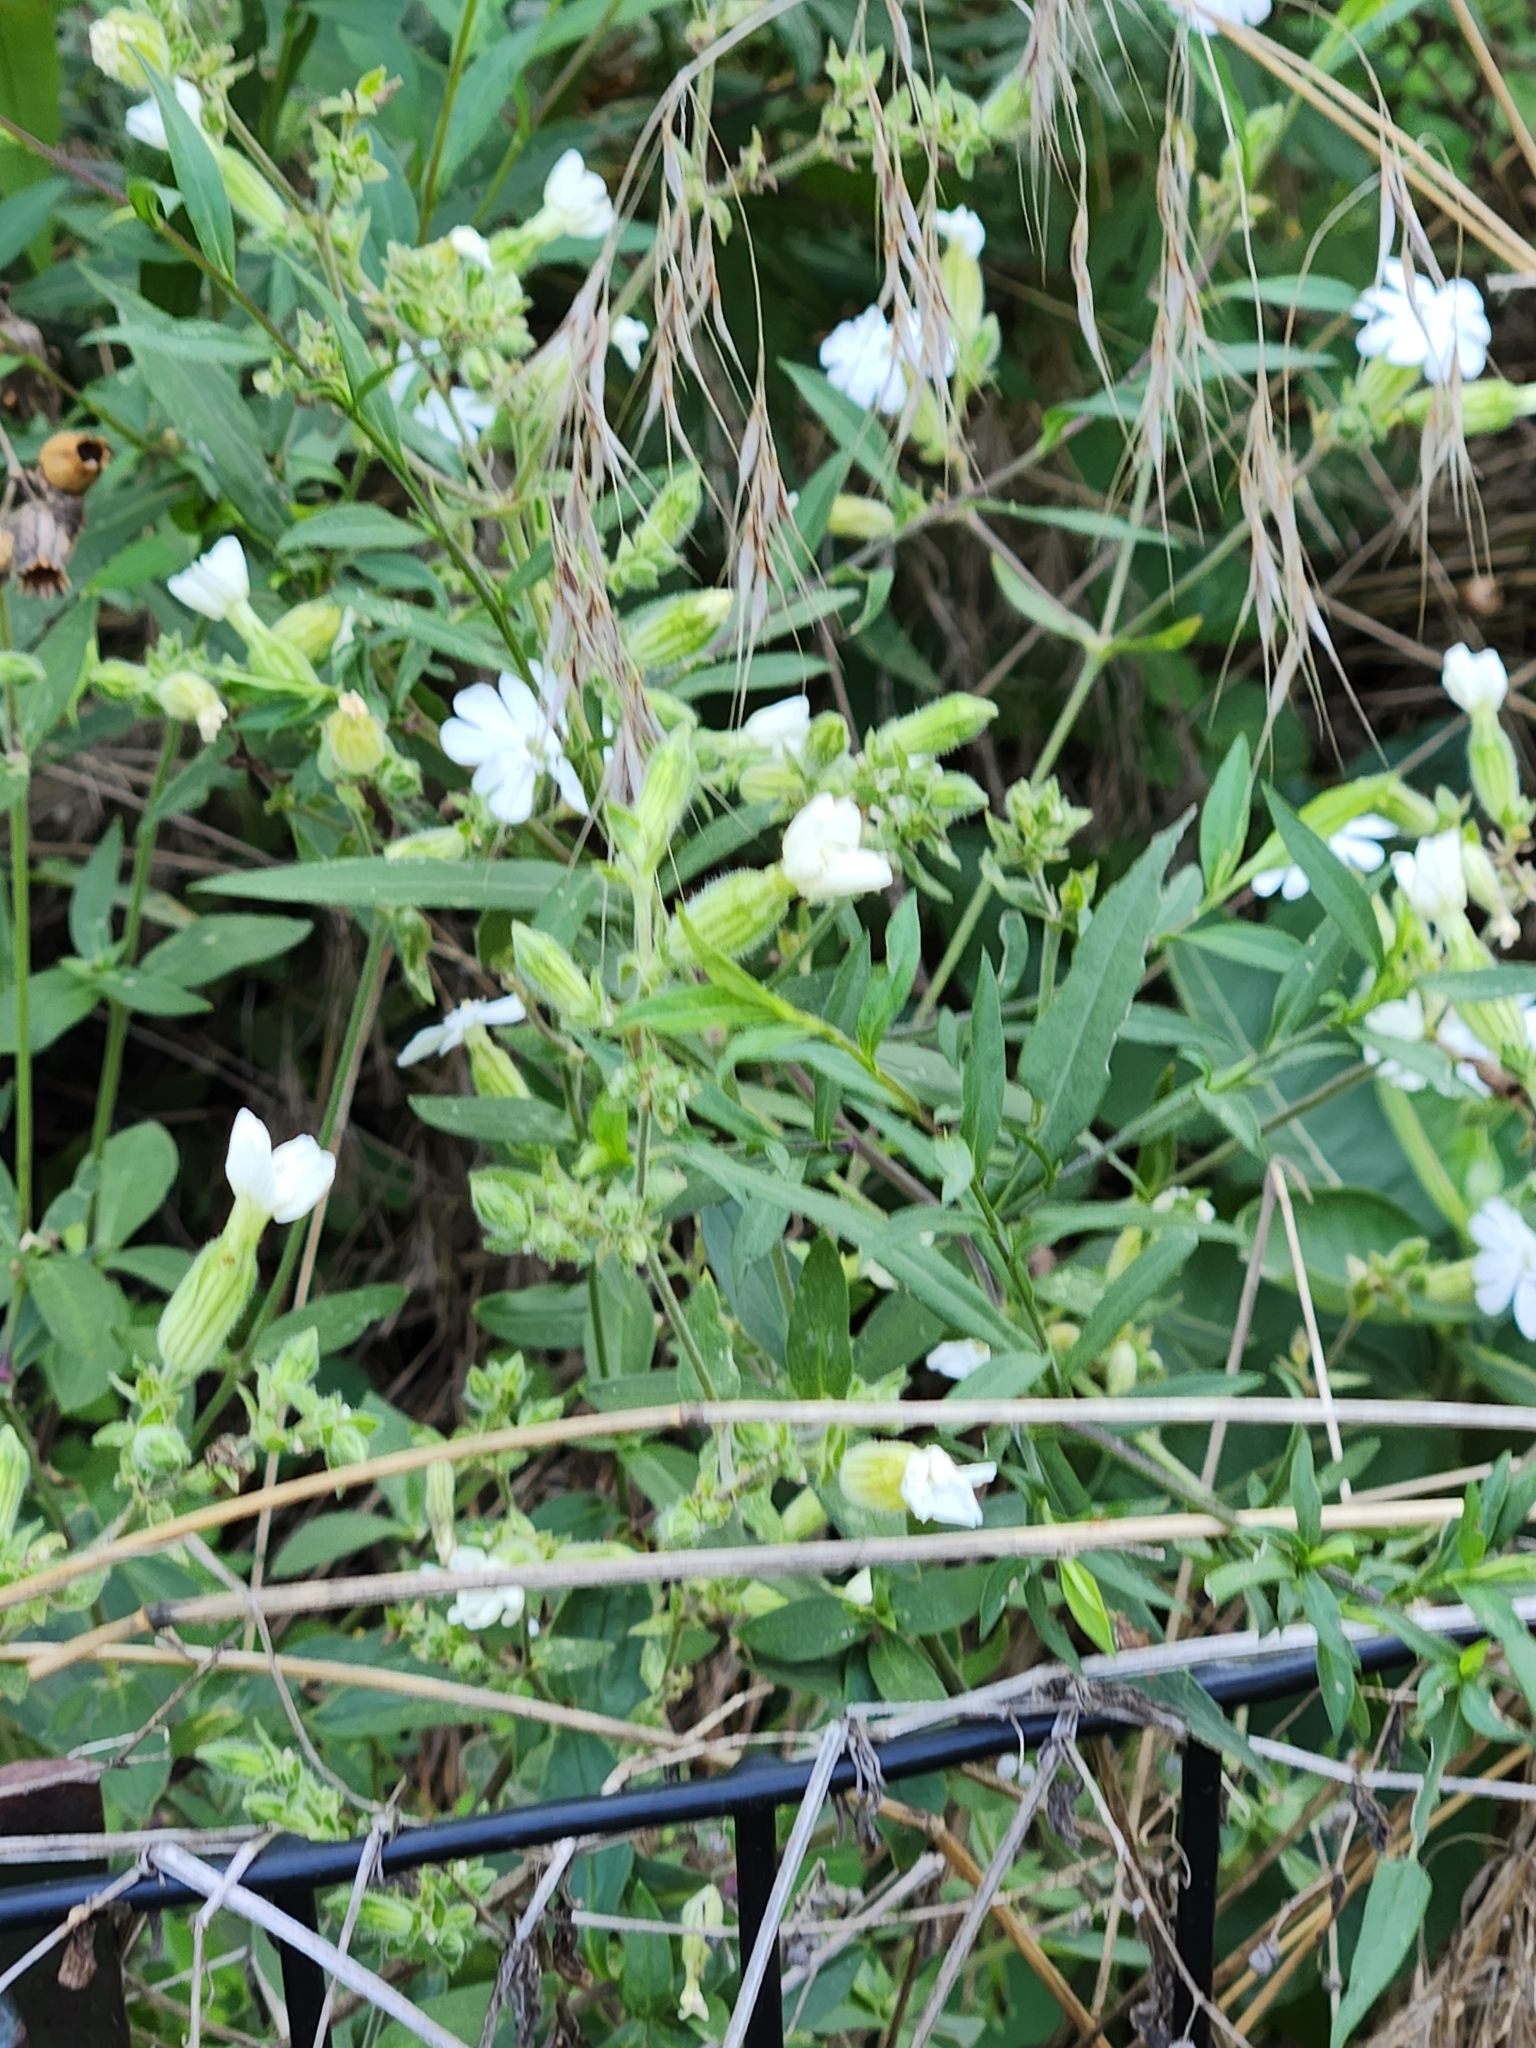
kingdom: Plantae
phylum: Tracheophyta
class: Magnoliopsida
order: Caryophyllales
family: Caryophyllaceae
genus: Silene
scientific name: Silene latifolia
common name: White campion
